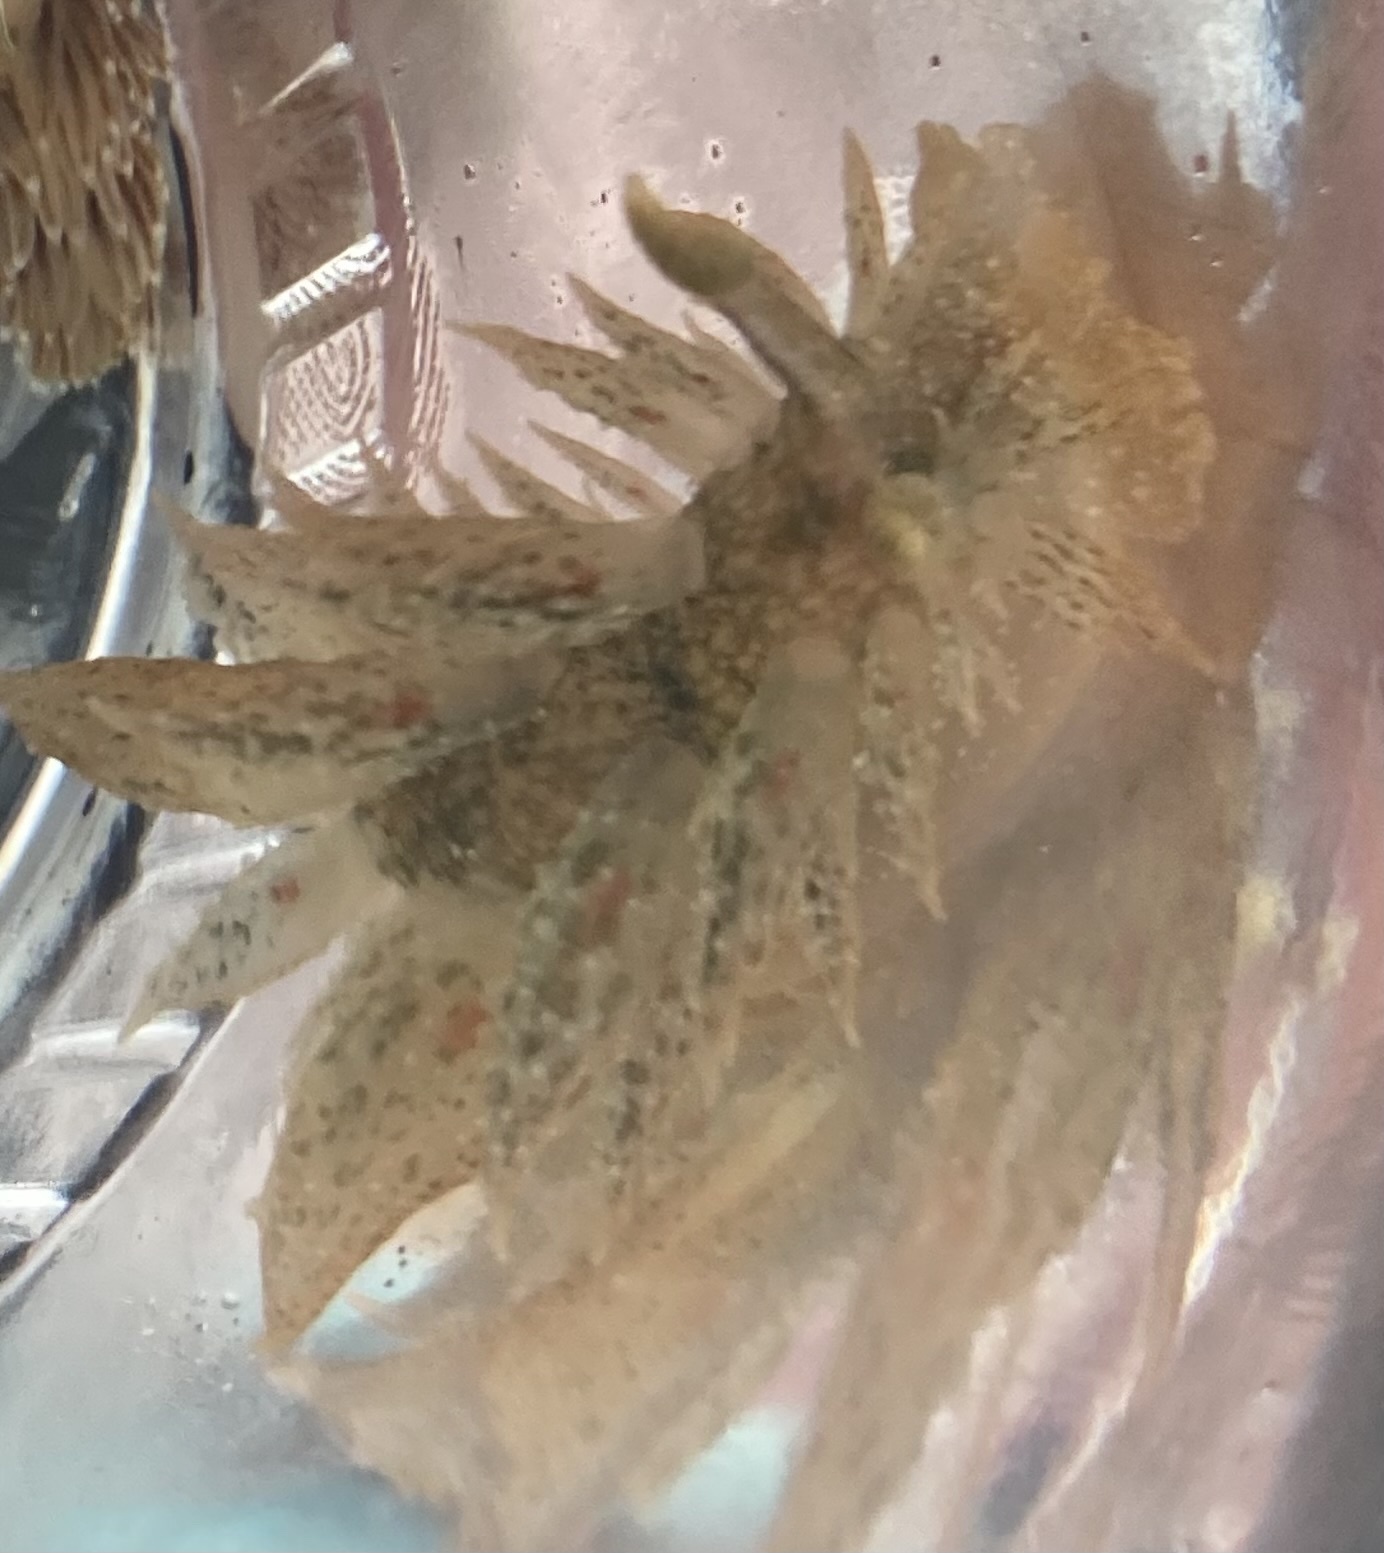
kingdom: Animalia
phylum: Mollusca
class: Gastropoda
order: Nudibranchia
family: Dironidae
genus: Dirona
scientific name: Dirona picta
